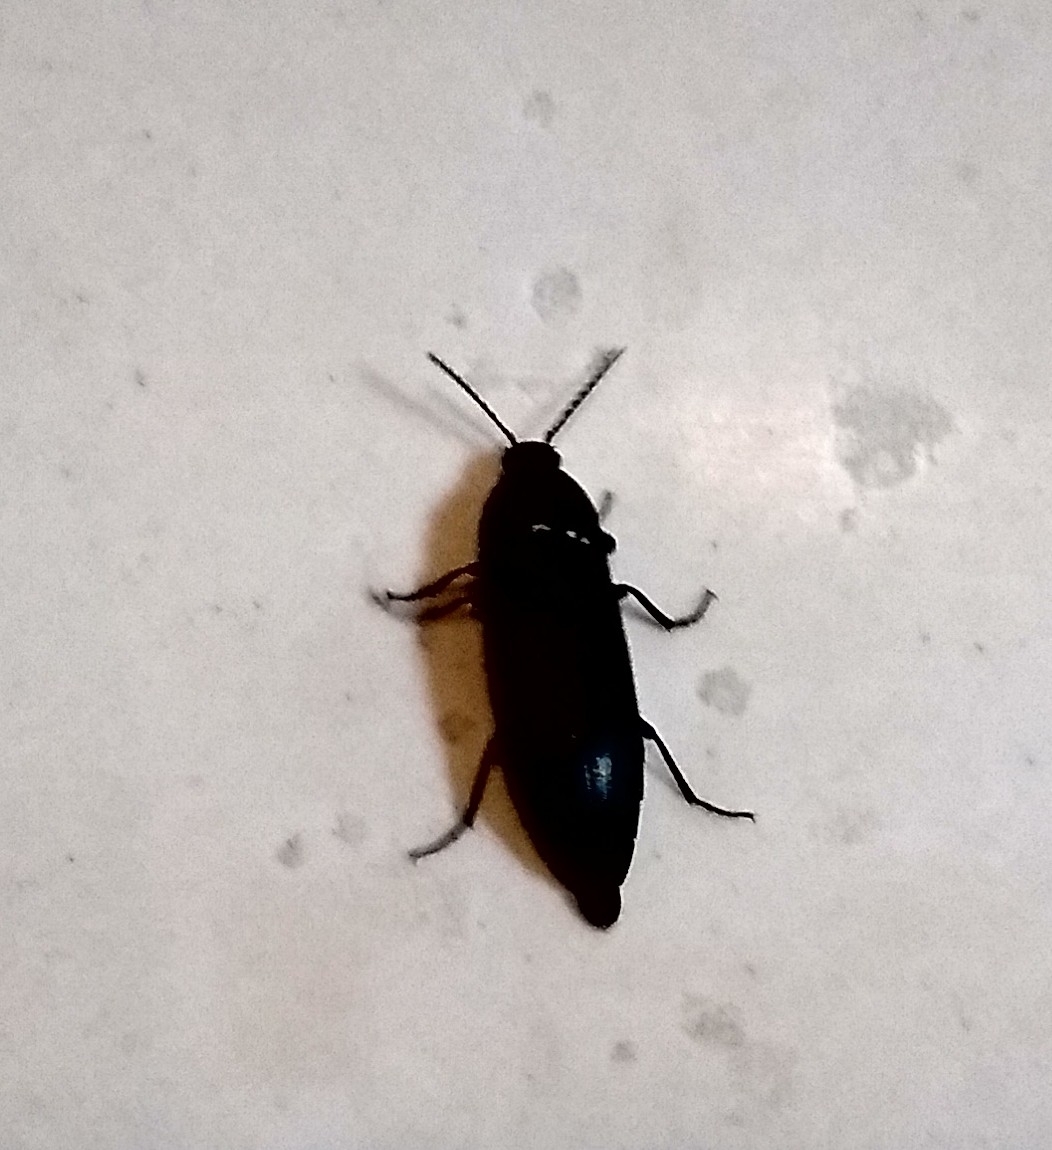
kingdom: Animalia
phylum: Arthropoda
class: Insecta
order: Coleoptera
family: Elateridae
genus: Elater
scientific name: Elater abruptus
